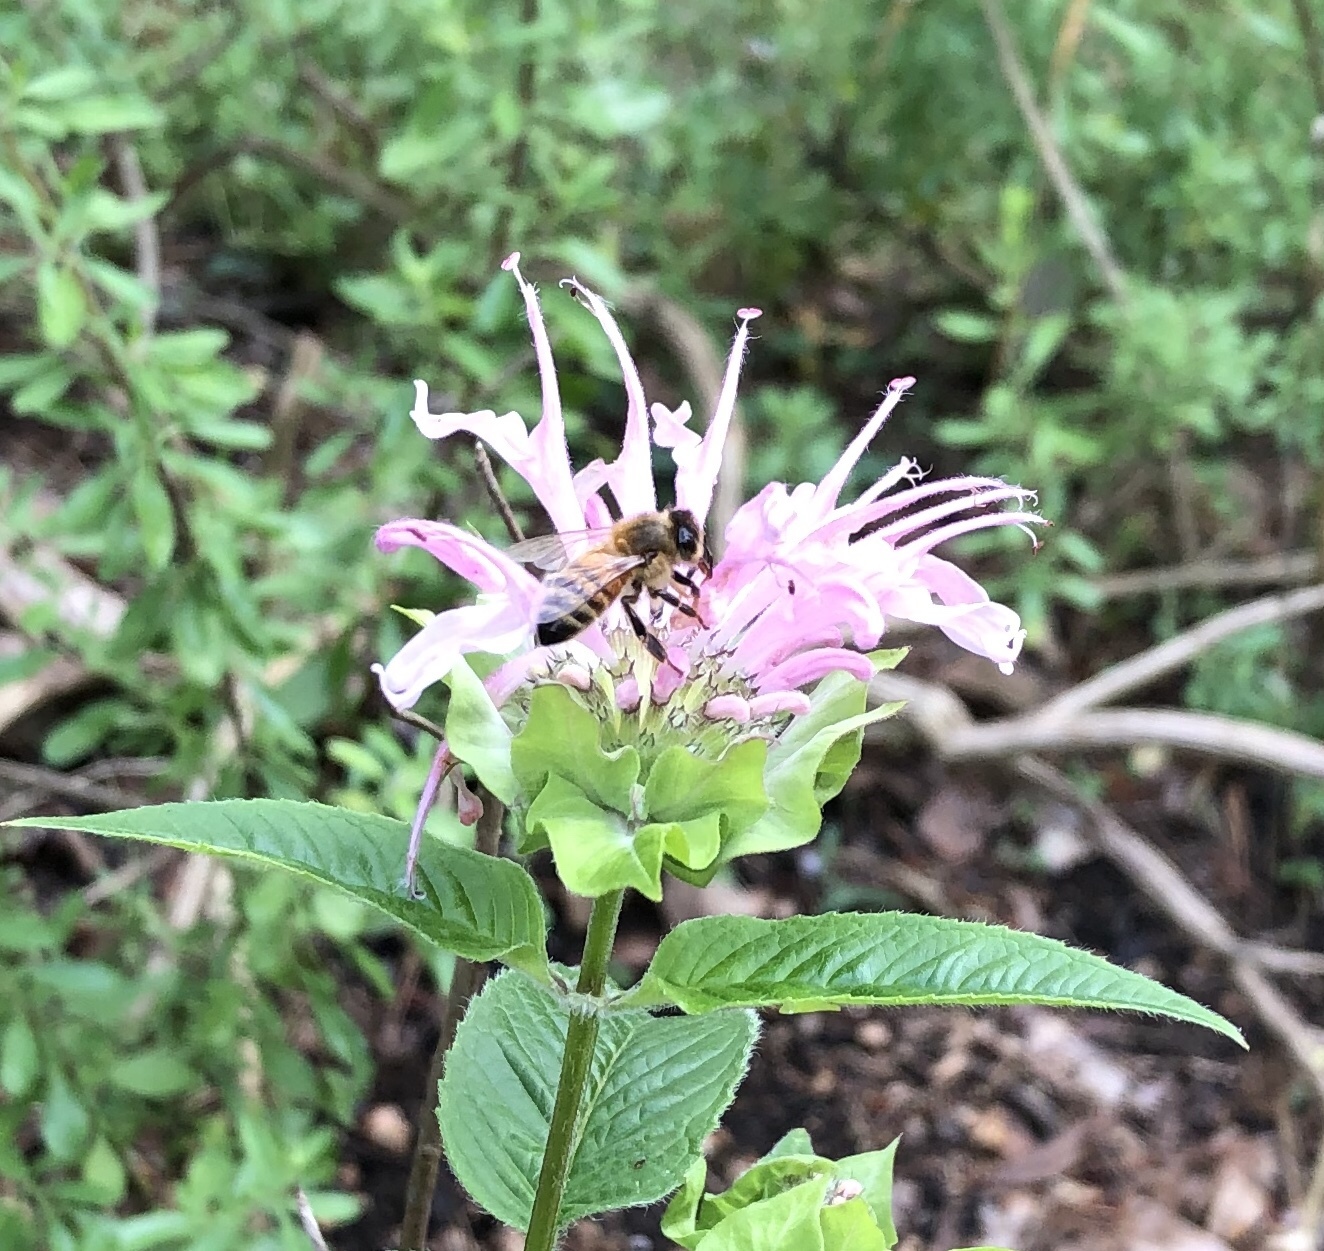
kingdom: Animalia
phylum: Arthropoda
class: Insecta
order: Hymenoptera
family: Apidae
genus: Apis
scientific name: Apis mellifera
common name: Honey bee
